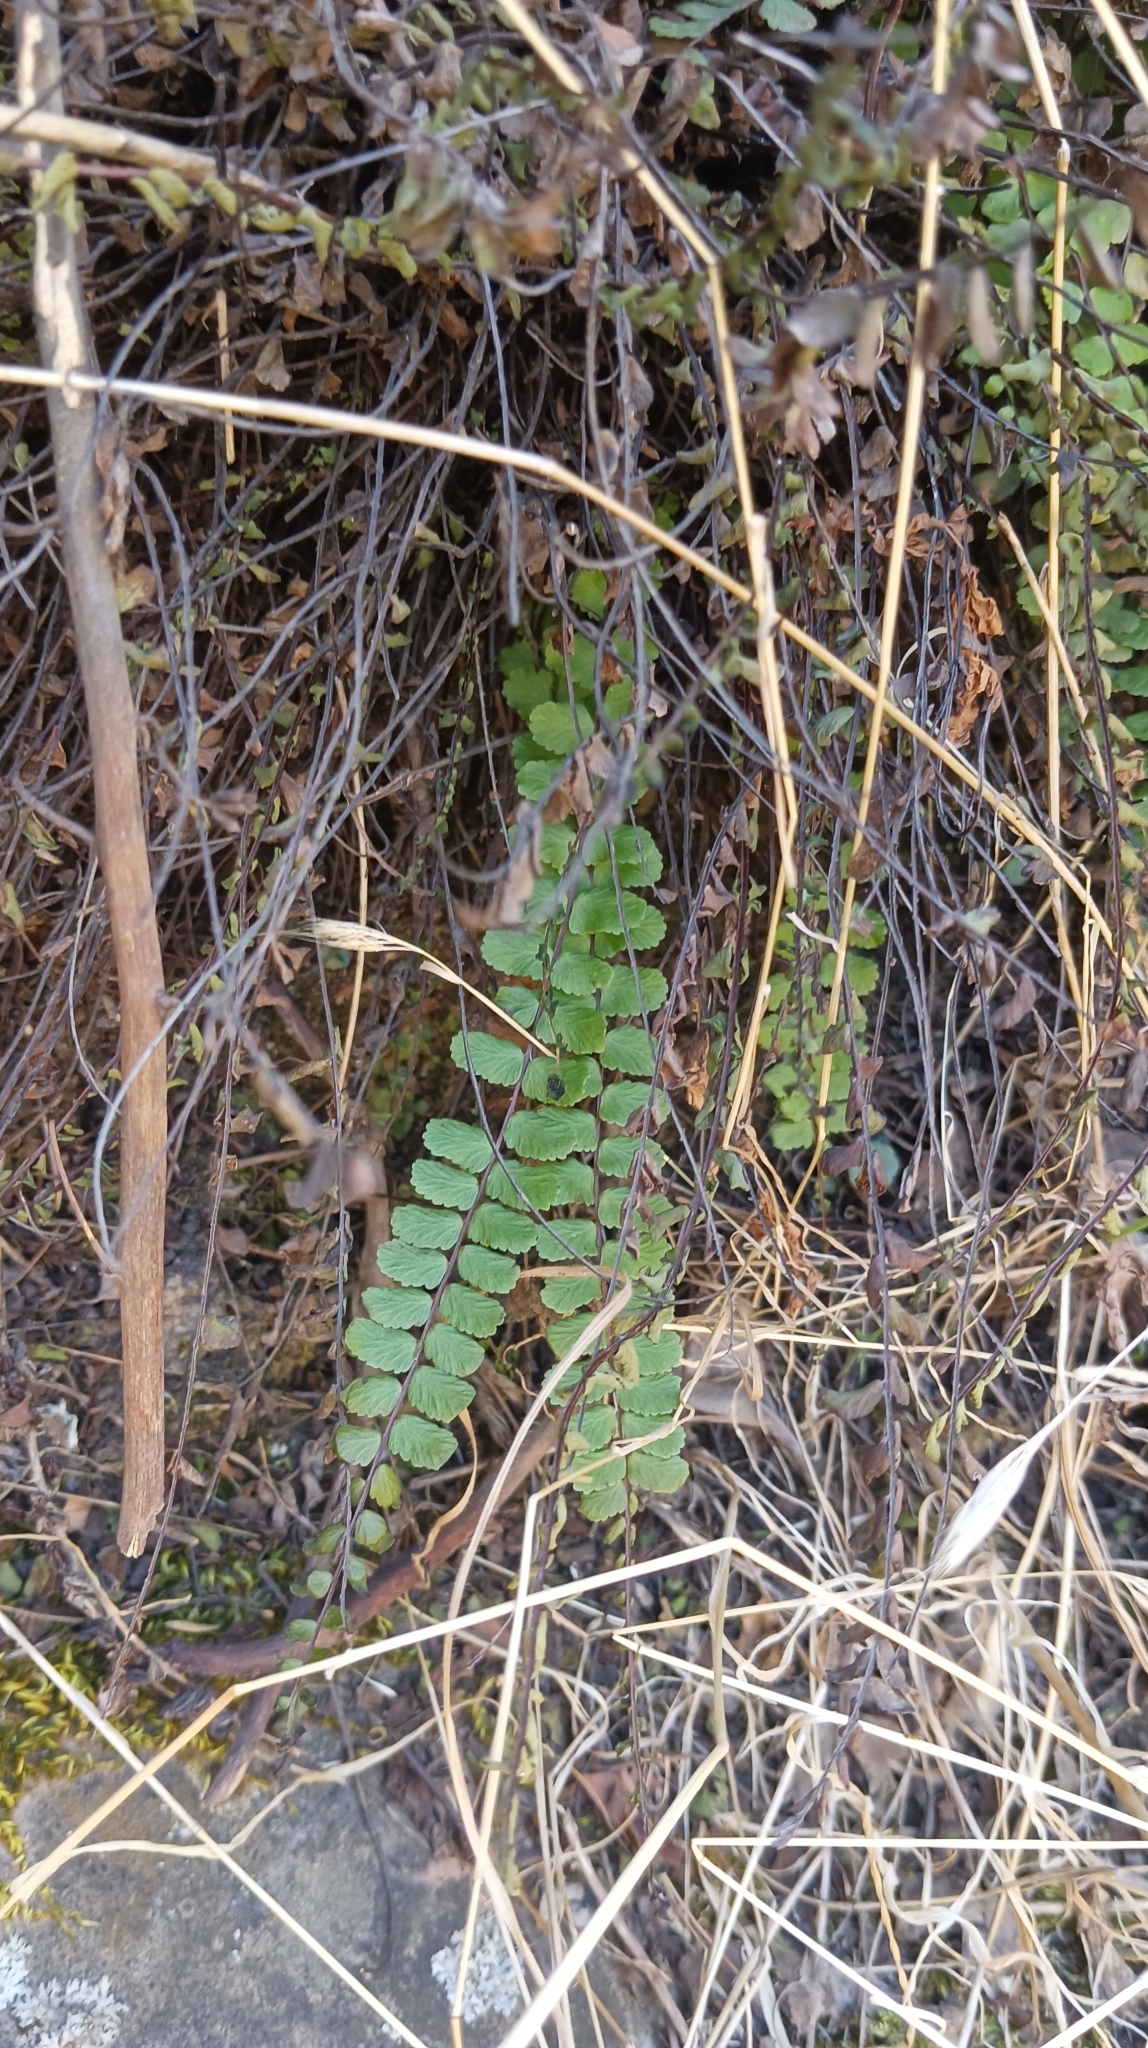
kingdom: Plantae
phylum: Tracheophyta
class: Polypodiopsida
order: Polypodiales
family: Aspleniaceae
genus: Asplenium
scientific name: Asplenium trichomanes
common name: Maidenhair spleenwort
